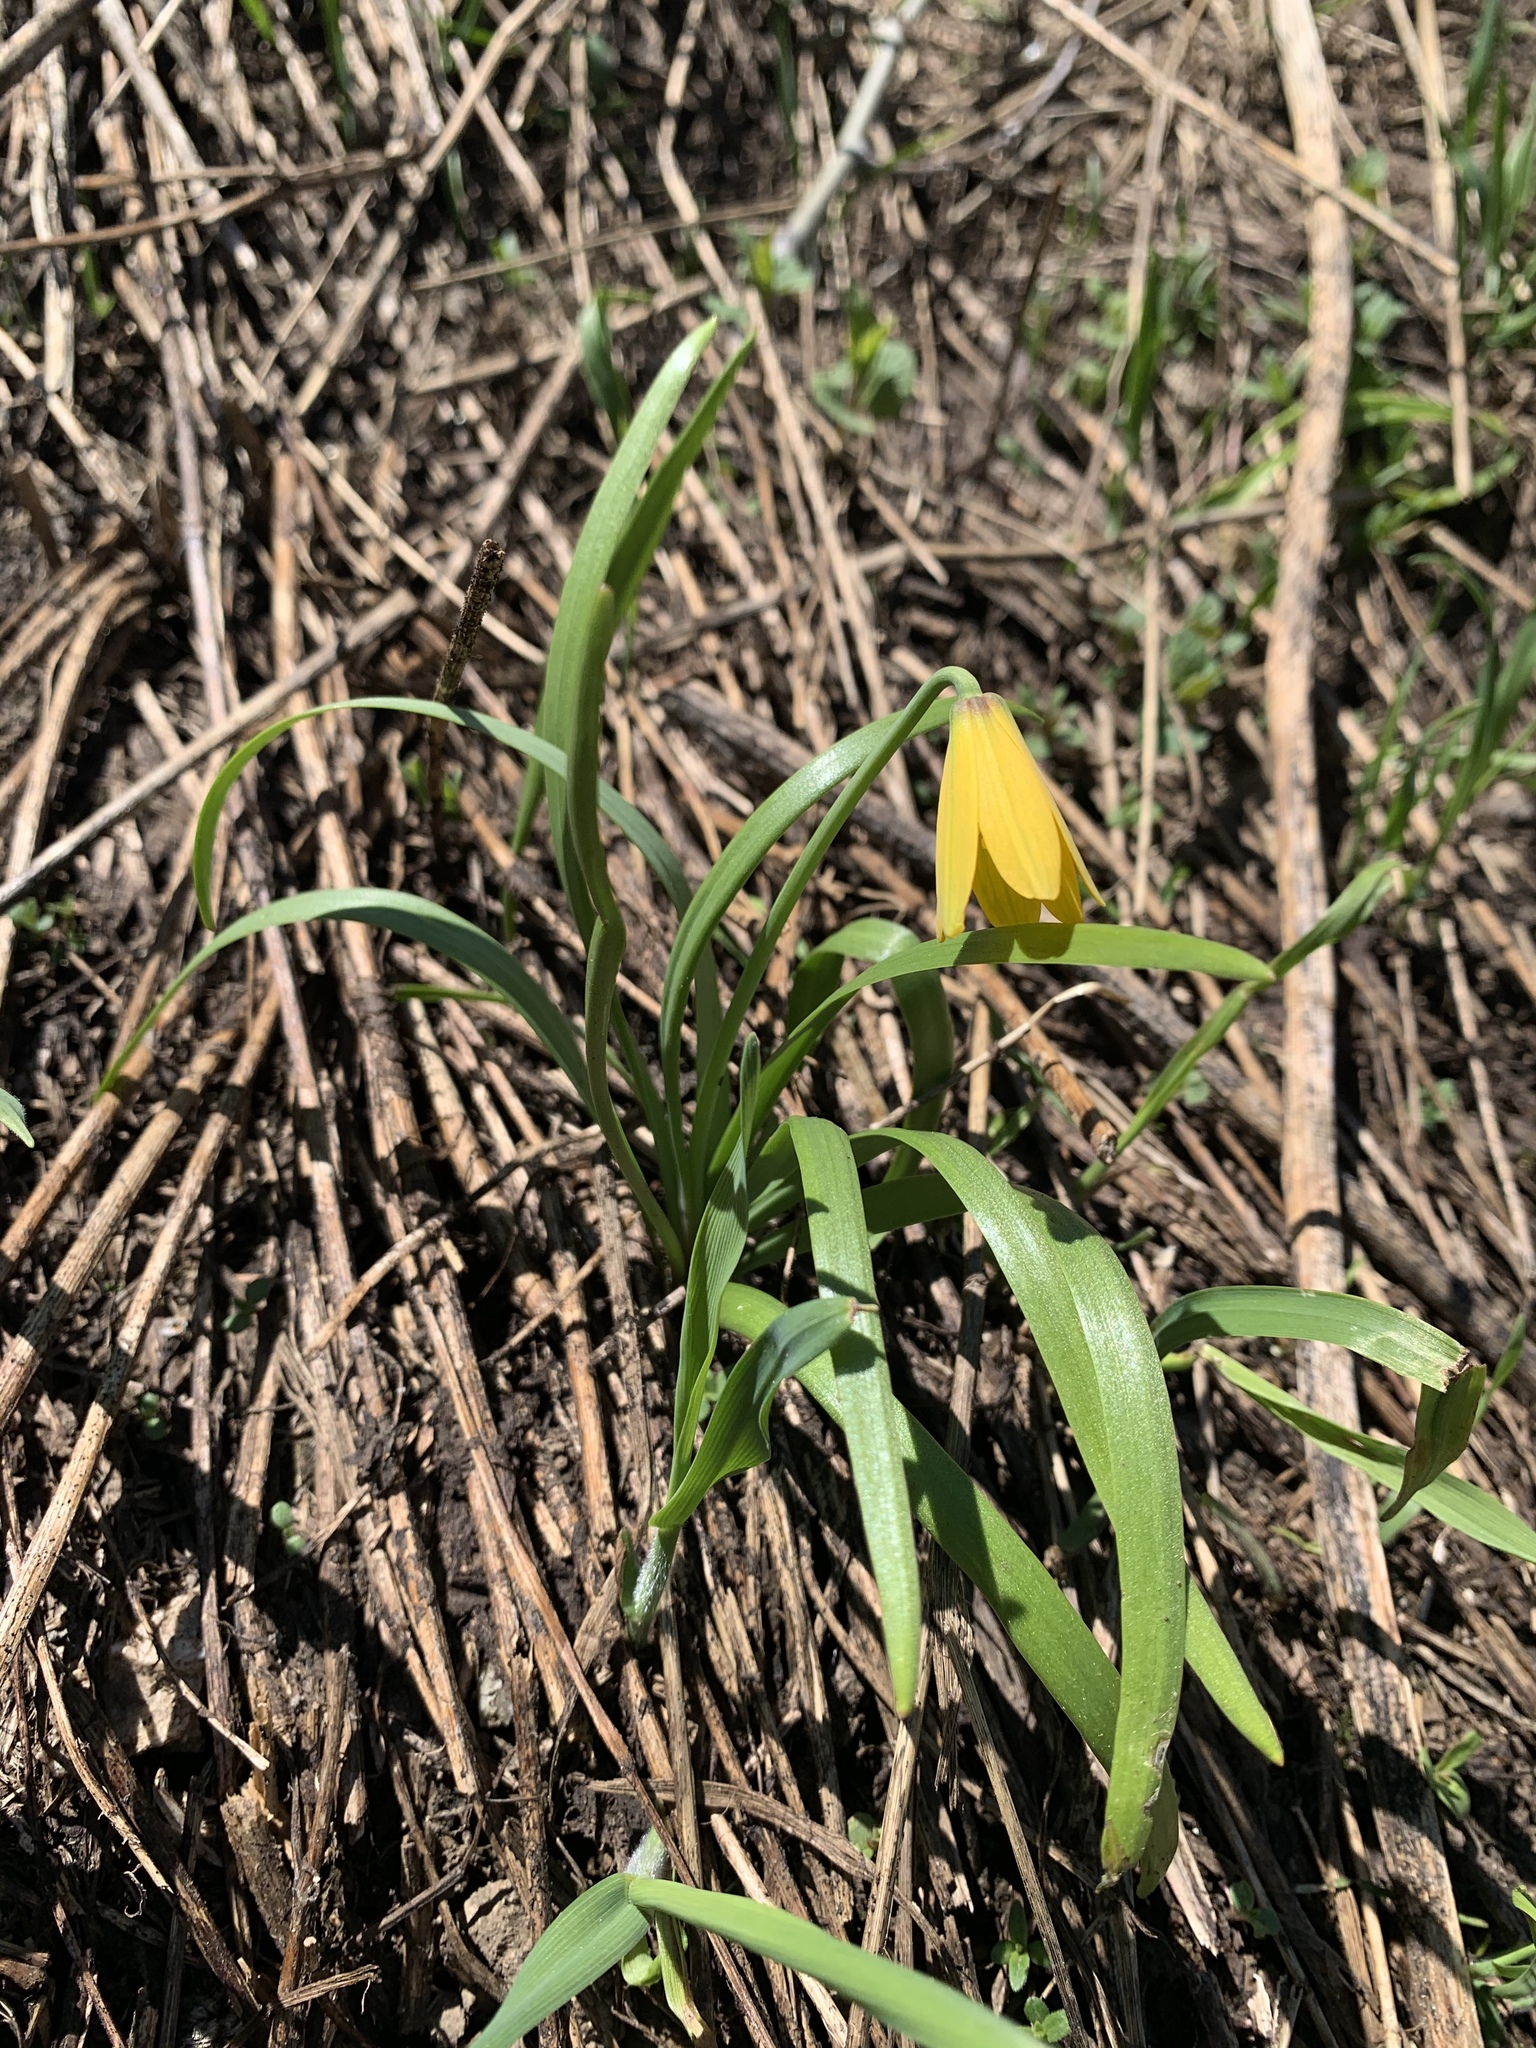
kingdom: Plantae
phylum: Tracheophyta
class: Liliopsida
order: Liliales
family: Liliaceae
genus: Fritillaria
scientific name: Fritillaria pudica
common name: Yellow fritillary
